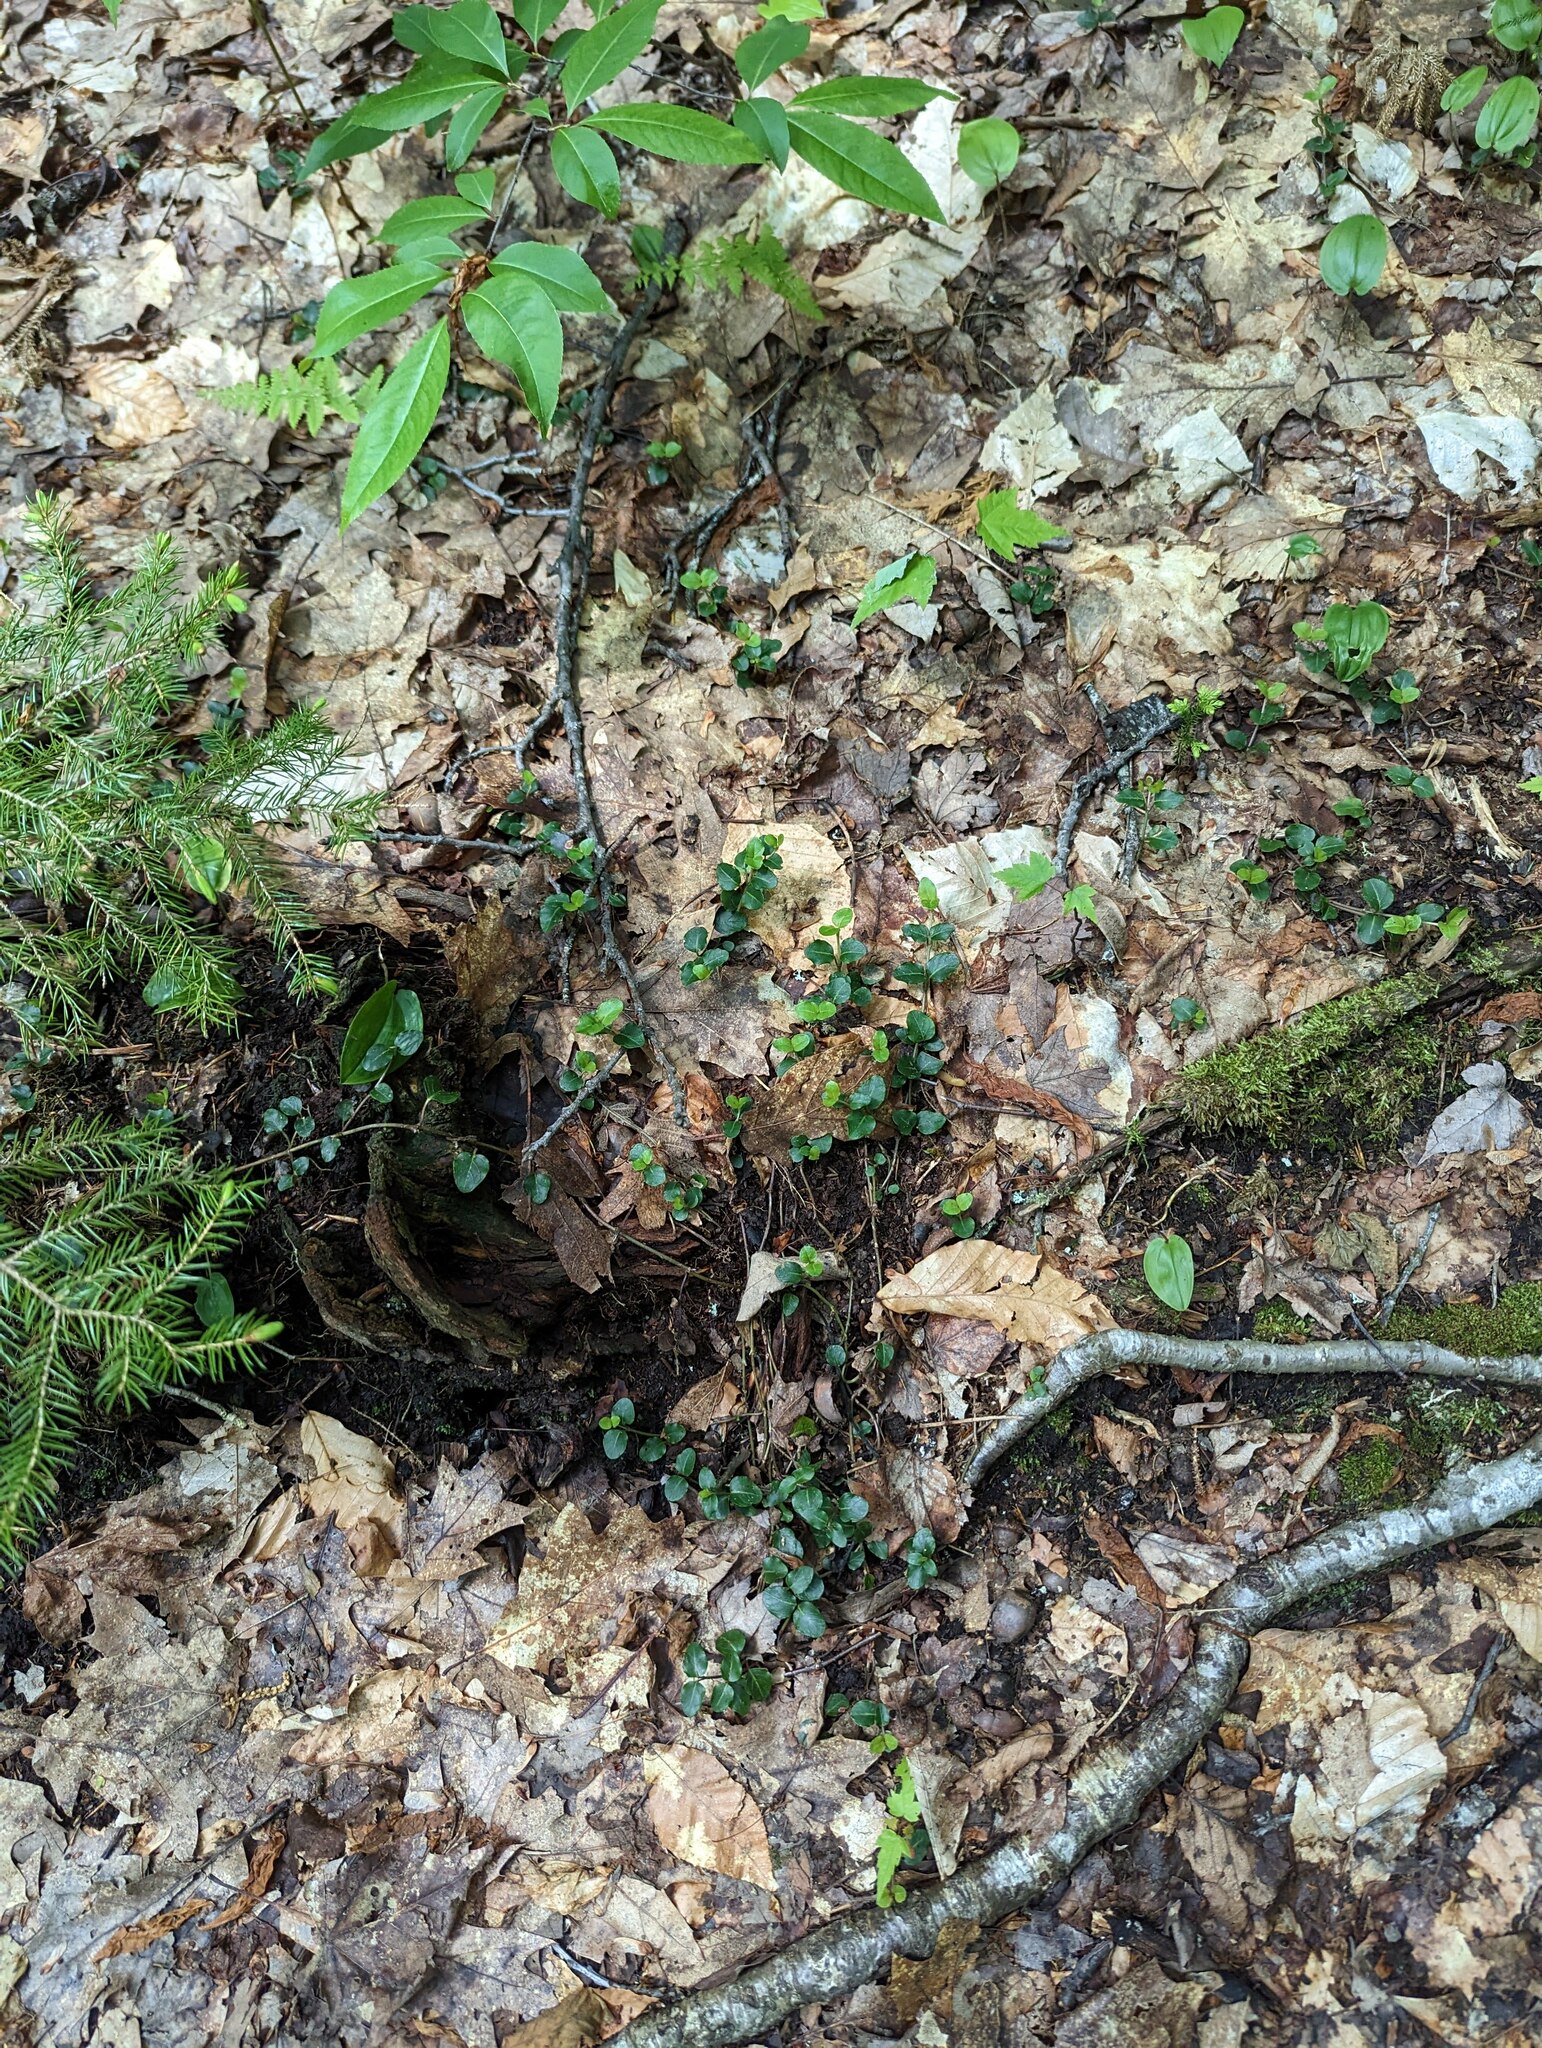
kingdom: Plantae
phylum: Tracheophyta
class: Magnoliopsida
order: Gentianales
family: Rubiaceae
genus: Mitchella
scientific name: Mitchella repens
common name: Partridge-berry
